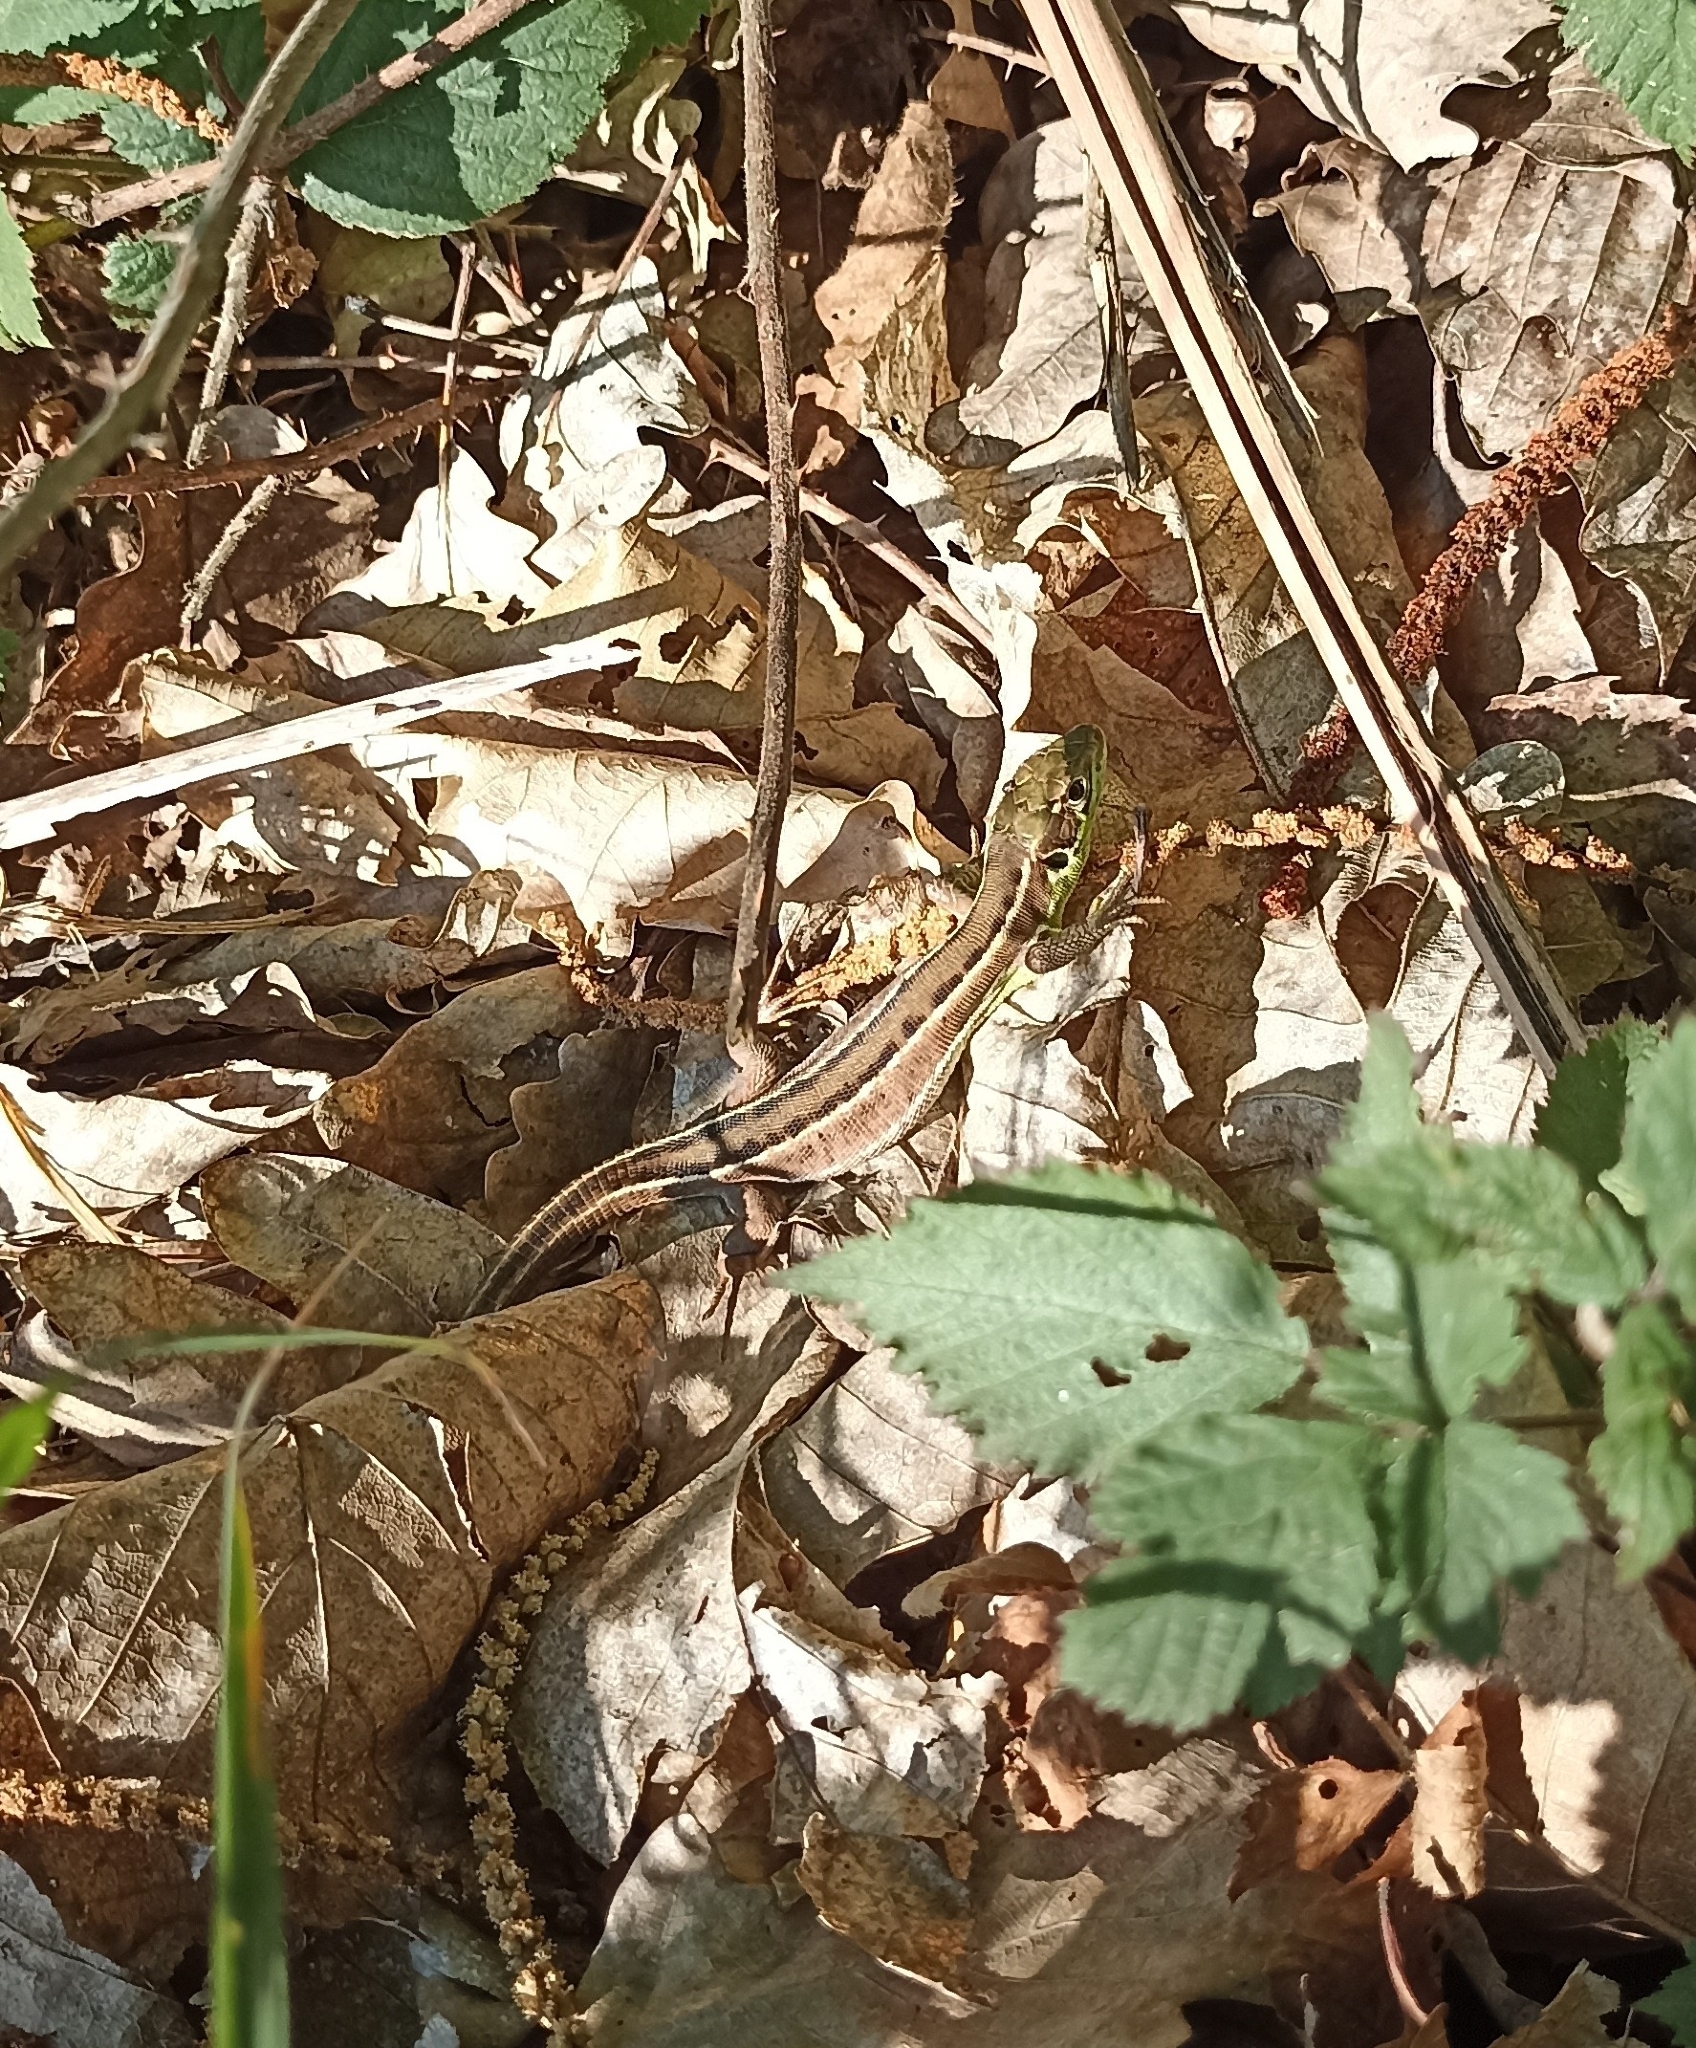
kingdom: Animalia
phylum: Chordata
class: Squamata
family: Lacertidae
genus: Lacerta
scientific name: Lacerta bilineata
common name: Western green lizard
